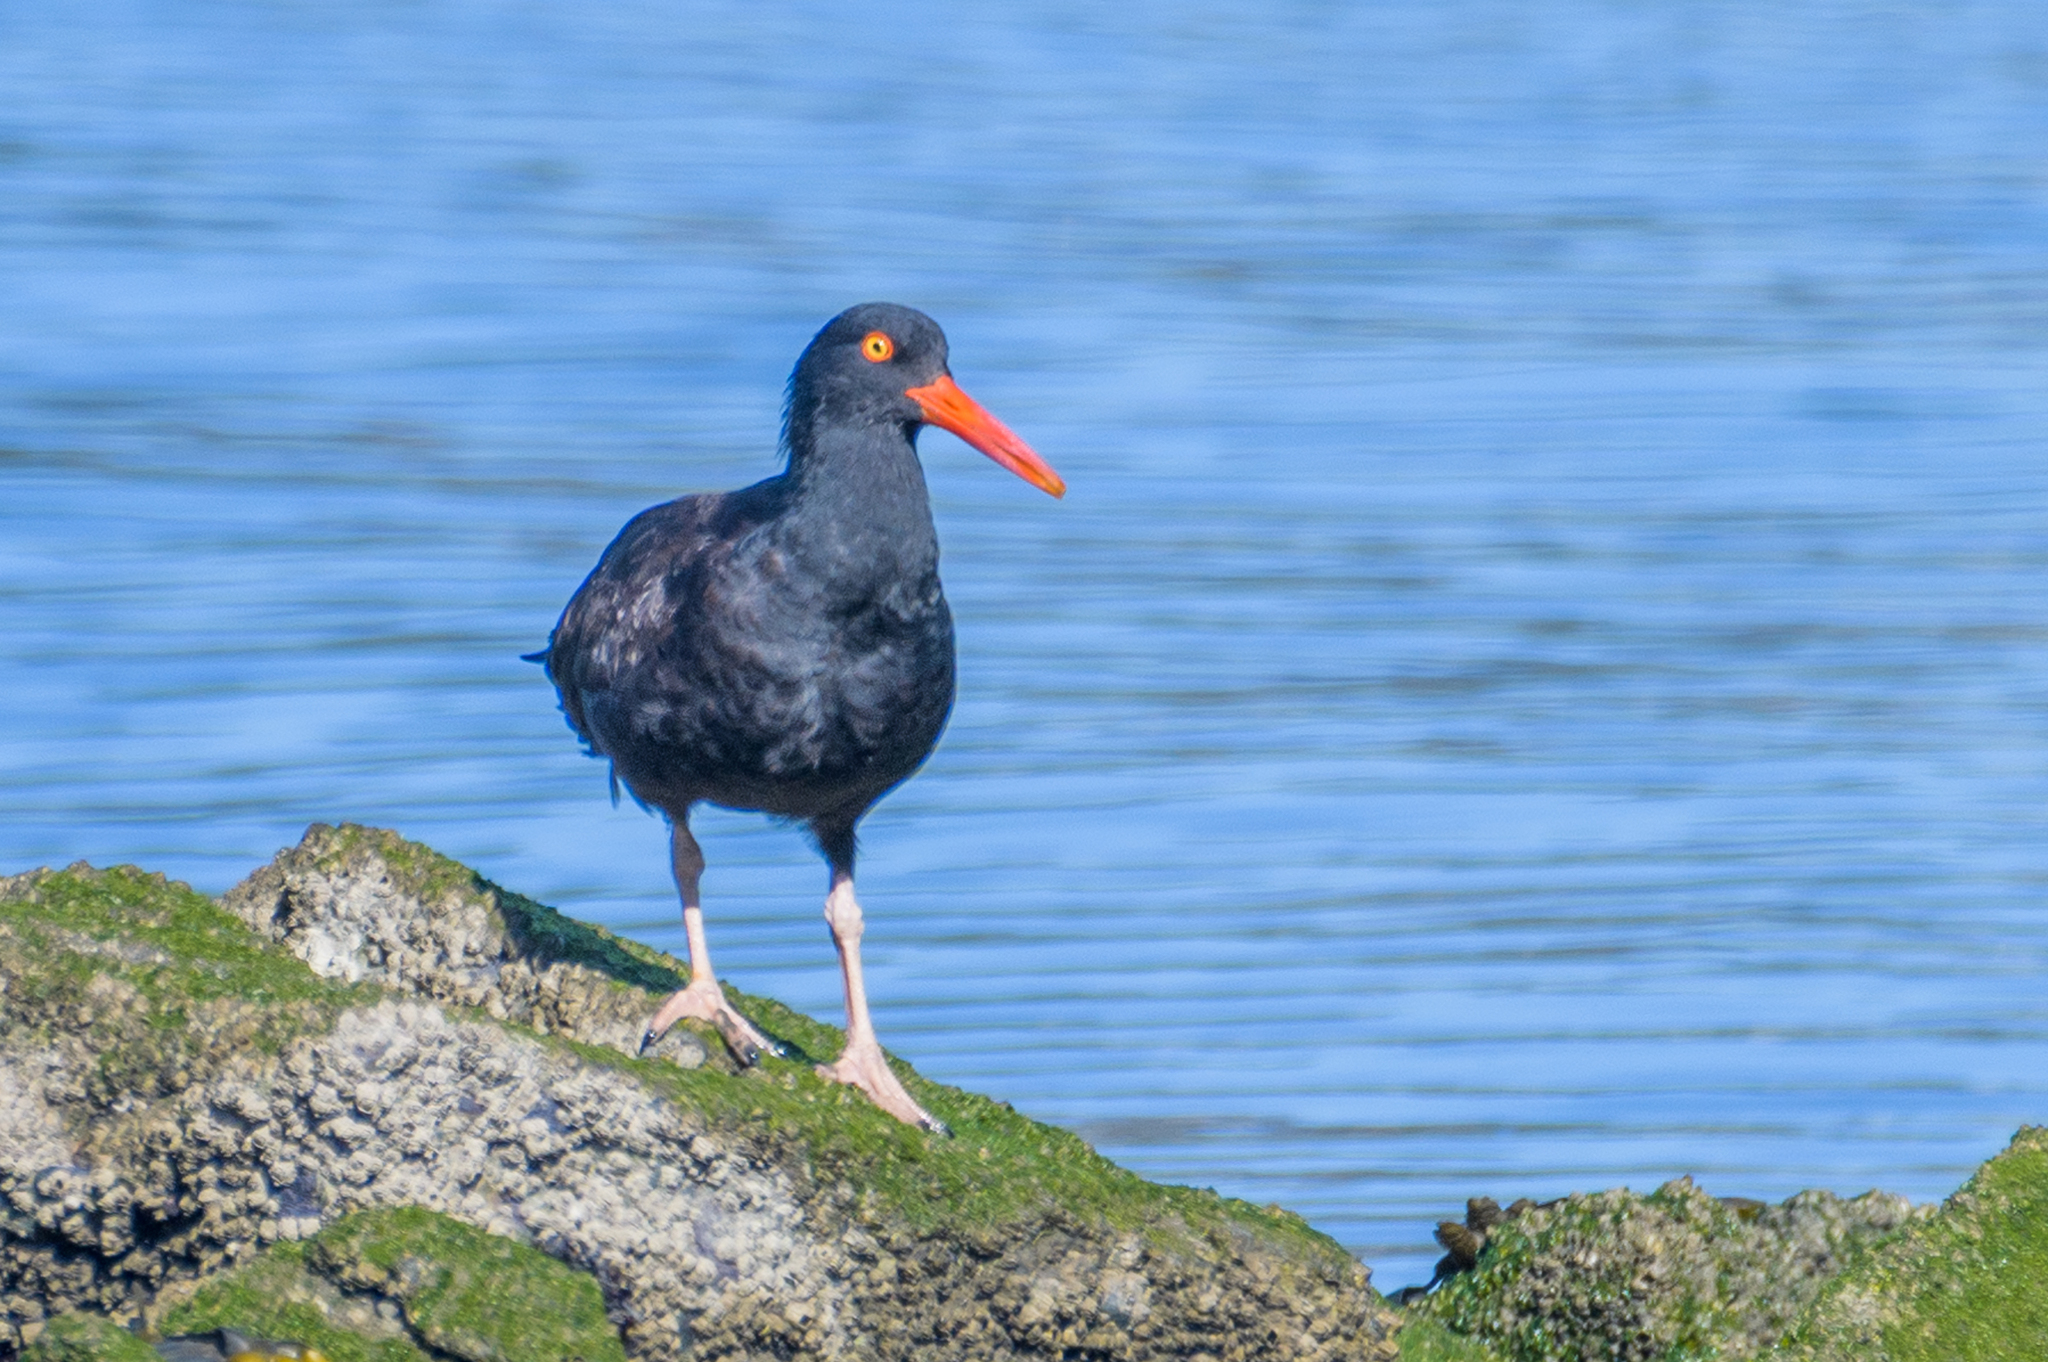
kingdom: Animalia
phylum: Chordata
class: Aves
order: Charadriiformes
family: Haematopodidae
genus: Haematopus
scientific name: Haematopus bachmani
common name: Black oystercatcher
